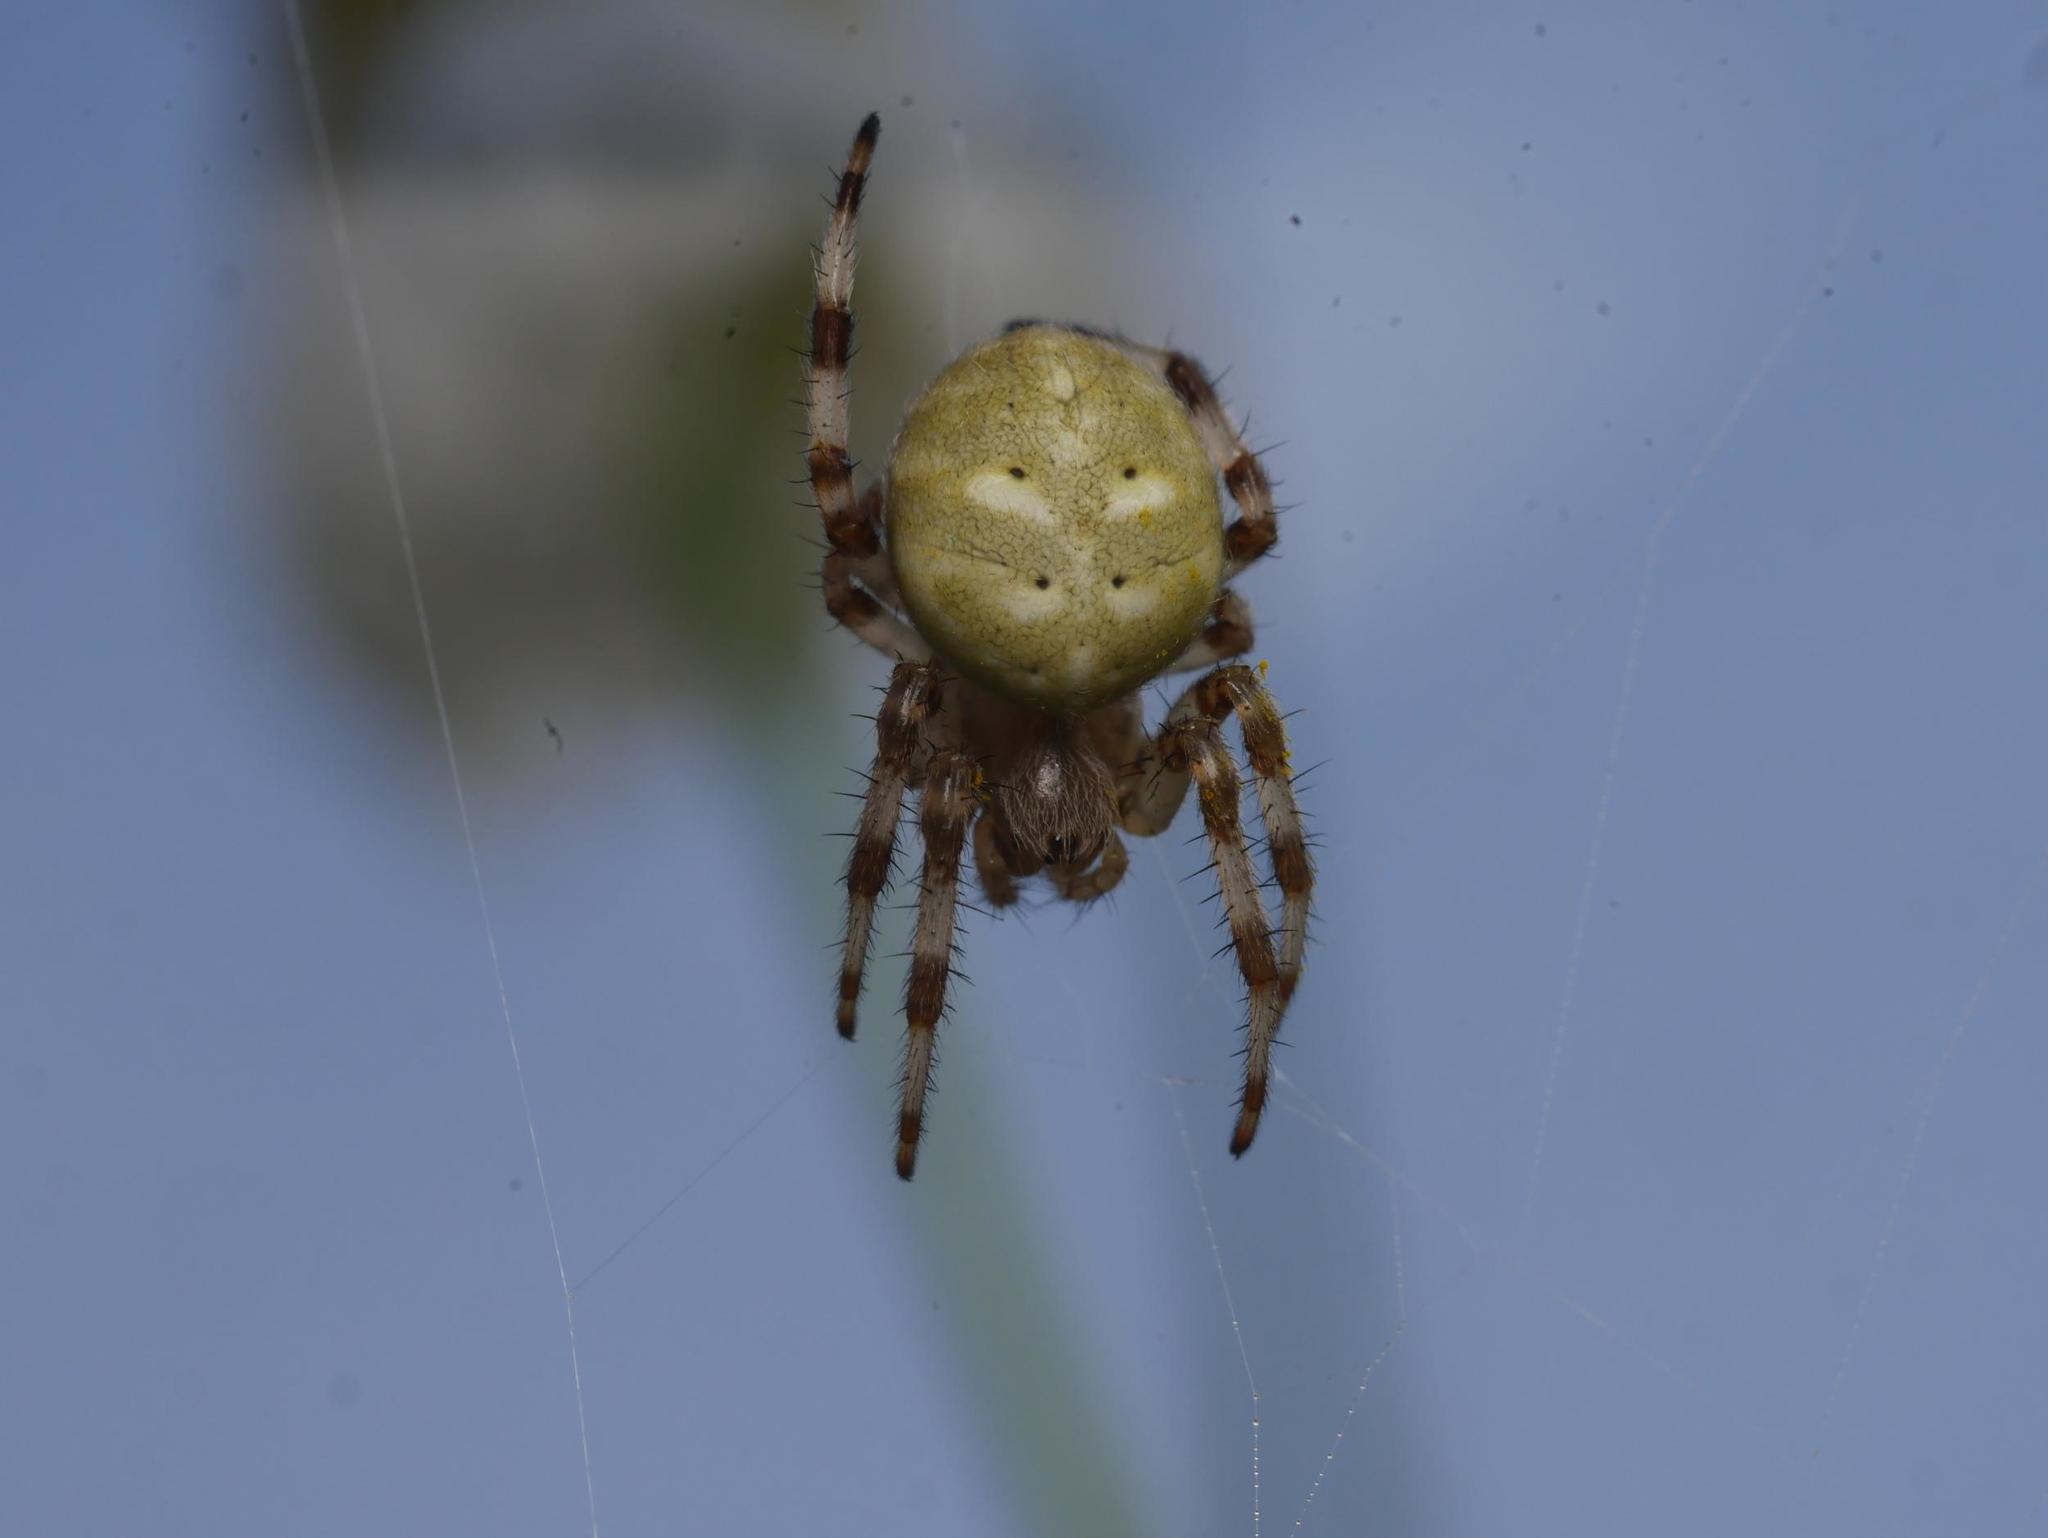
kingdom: Animalia
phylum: Arthropoda
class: Arachnida
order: Araneae
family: Araneidae
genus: Araneus
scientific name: Araneus quadratus
